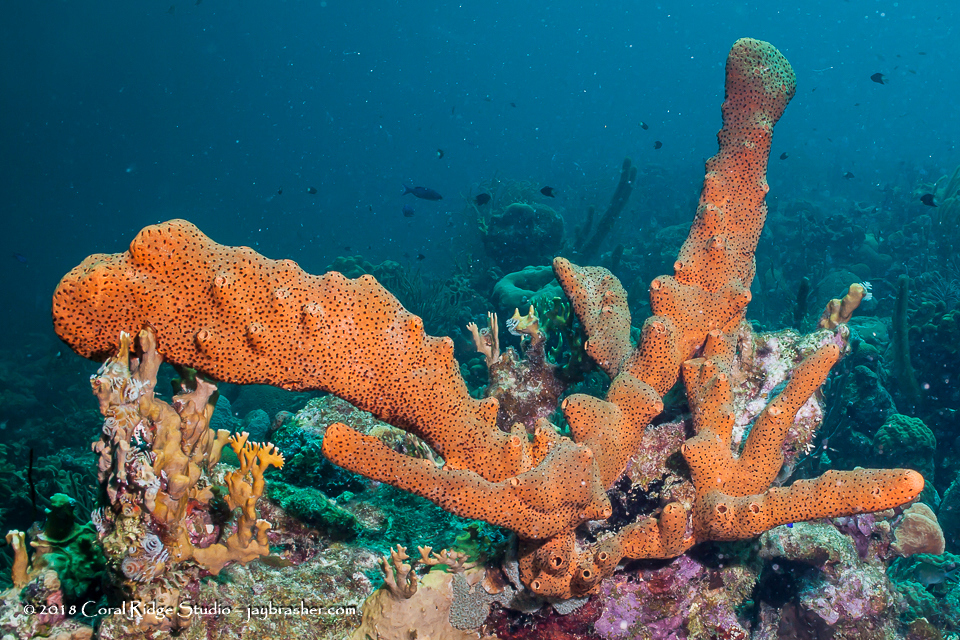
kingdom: Animalia
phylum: Cnidaria
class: Anthozoa
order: Zoantharia
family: Parazoanthidae
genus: Bergia
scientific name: Bergia puertoricense
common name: Maroon sponge zoanthid
